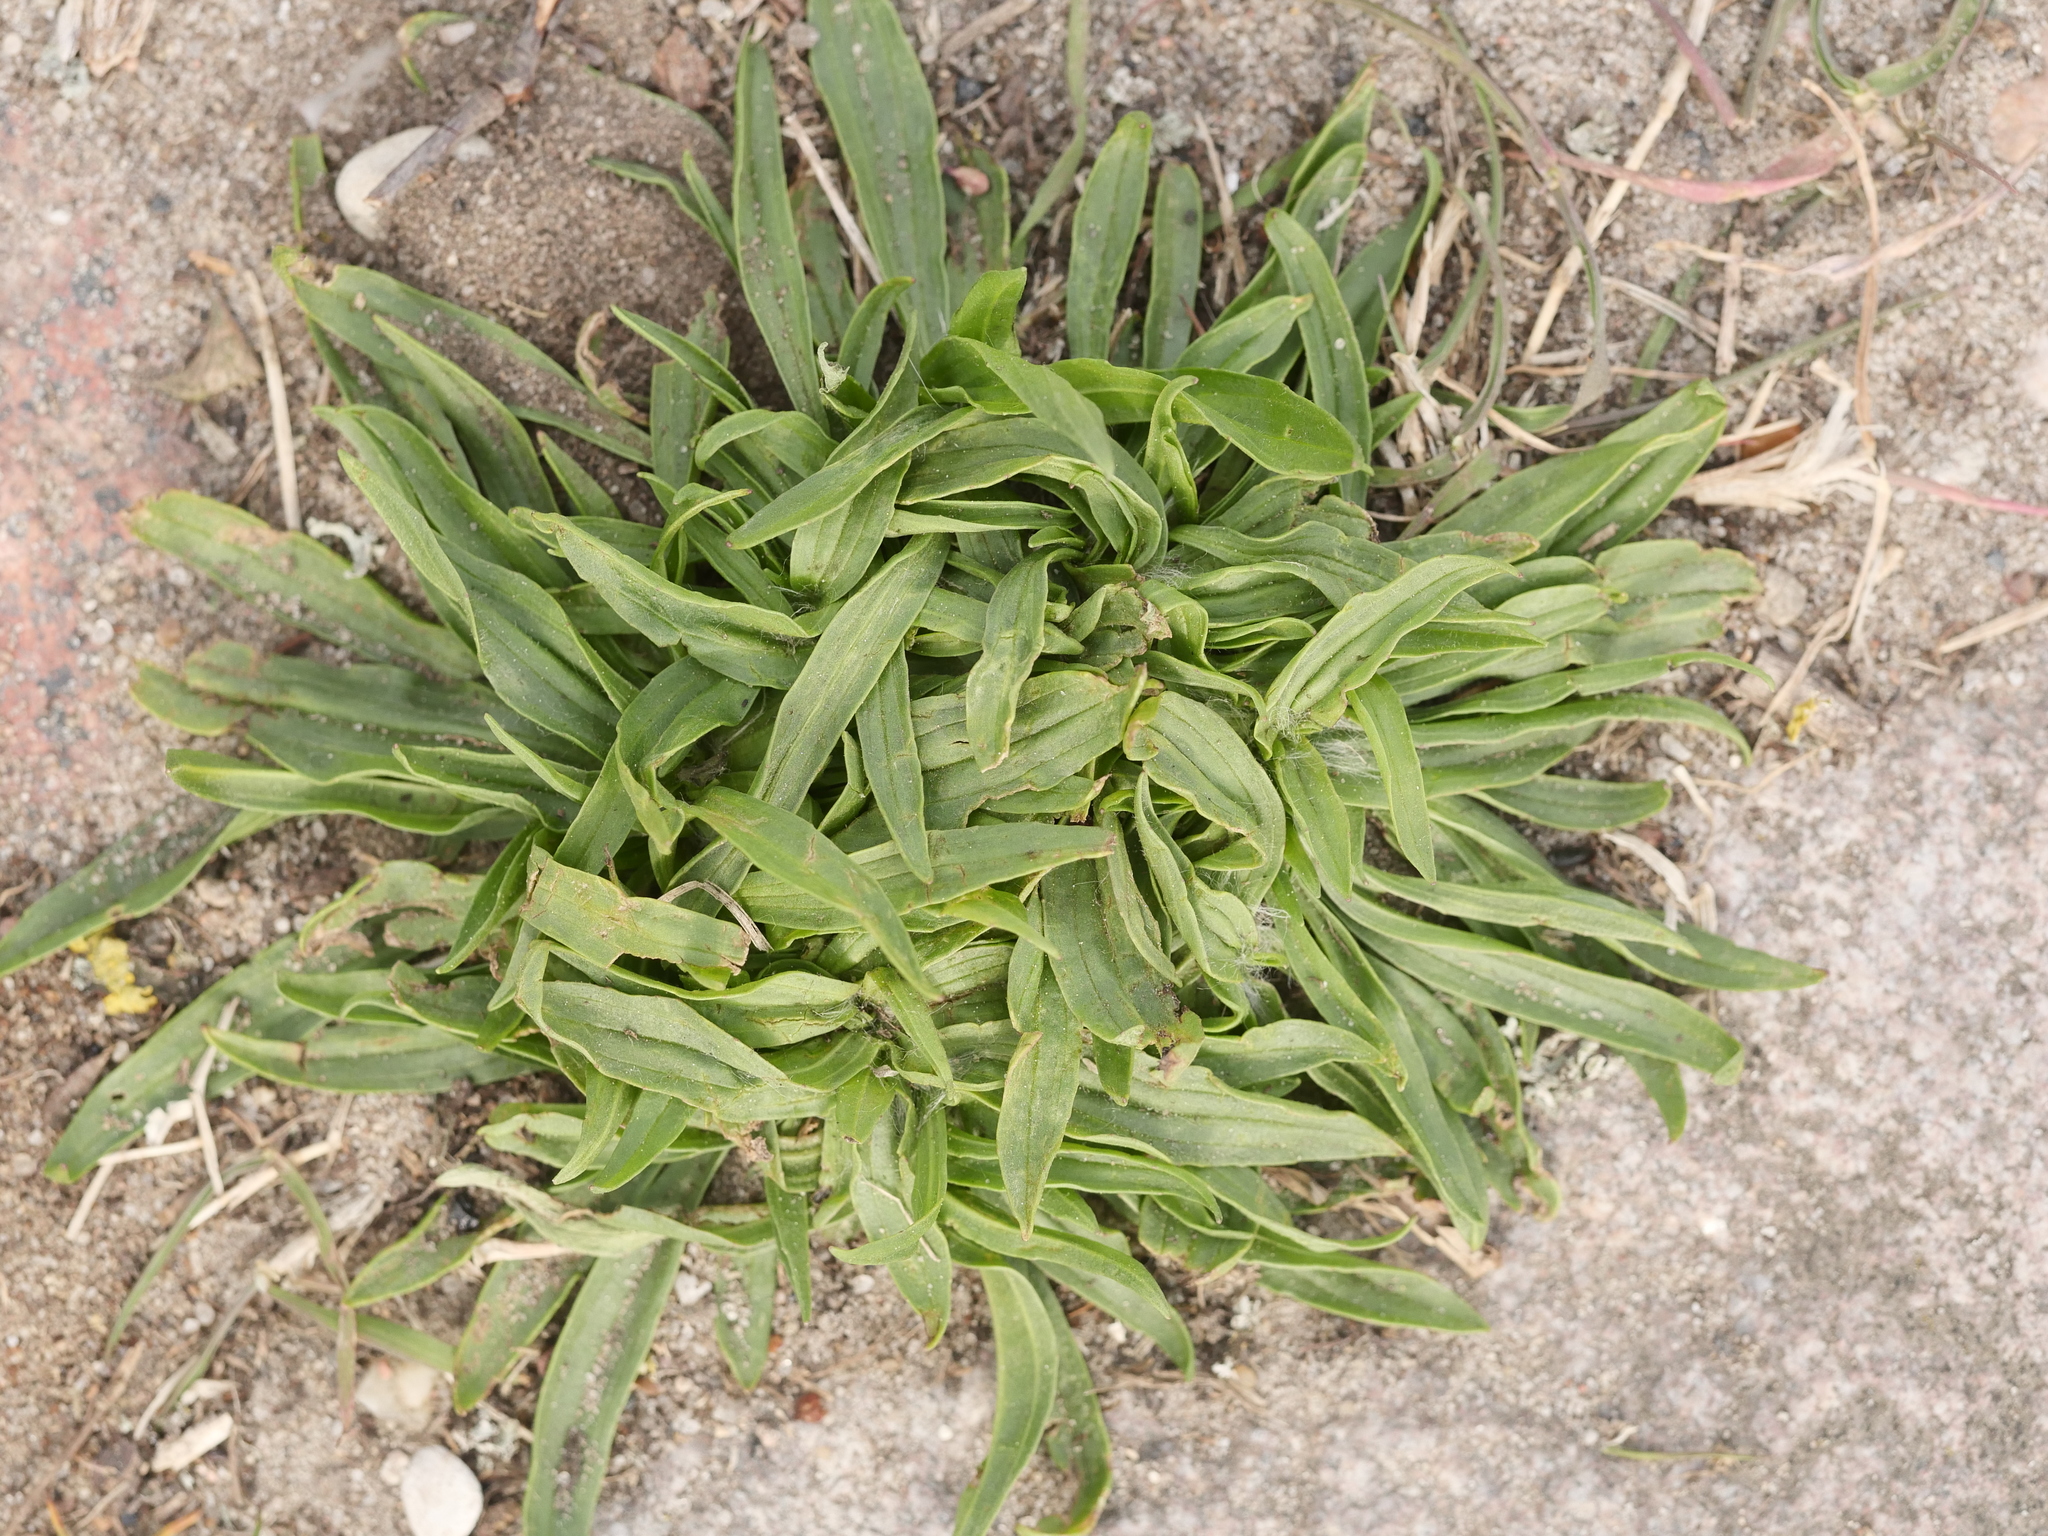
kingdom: Plantae
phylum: Tracheophyta
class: Magnoliopsida
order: Lamiales
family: Plantaginaceae
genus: Plantago
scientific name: Plantago lanceolata
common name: Ribwort plantain
